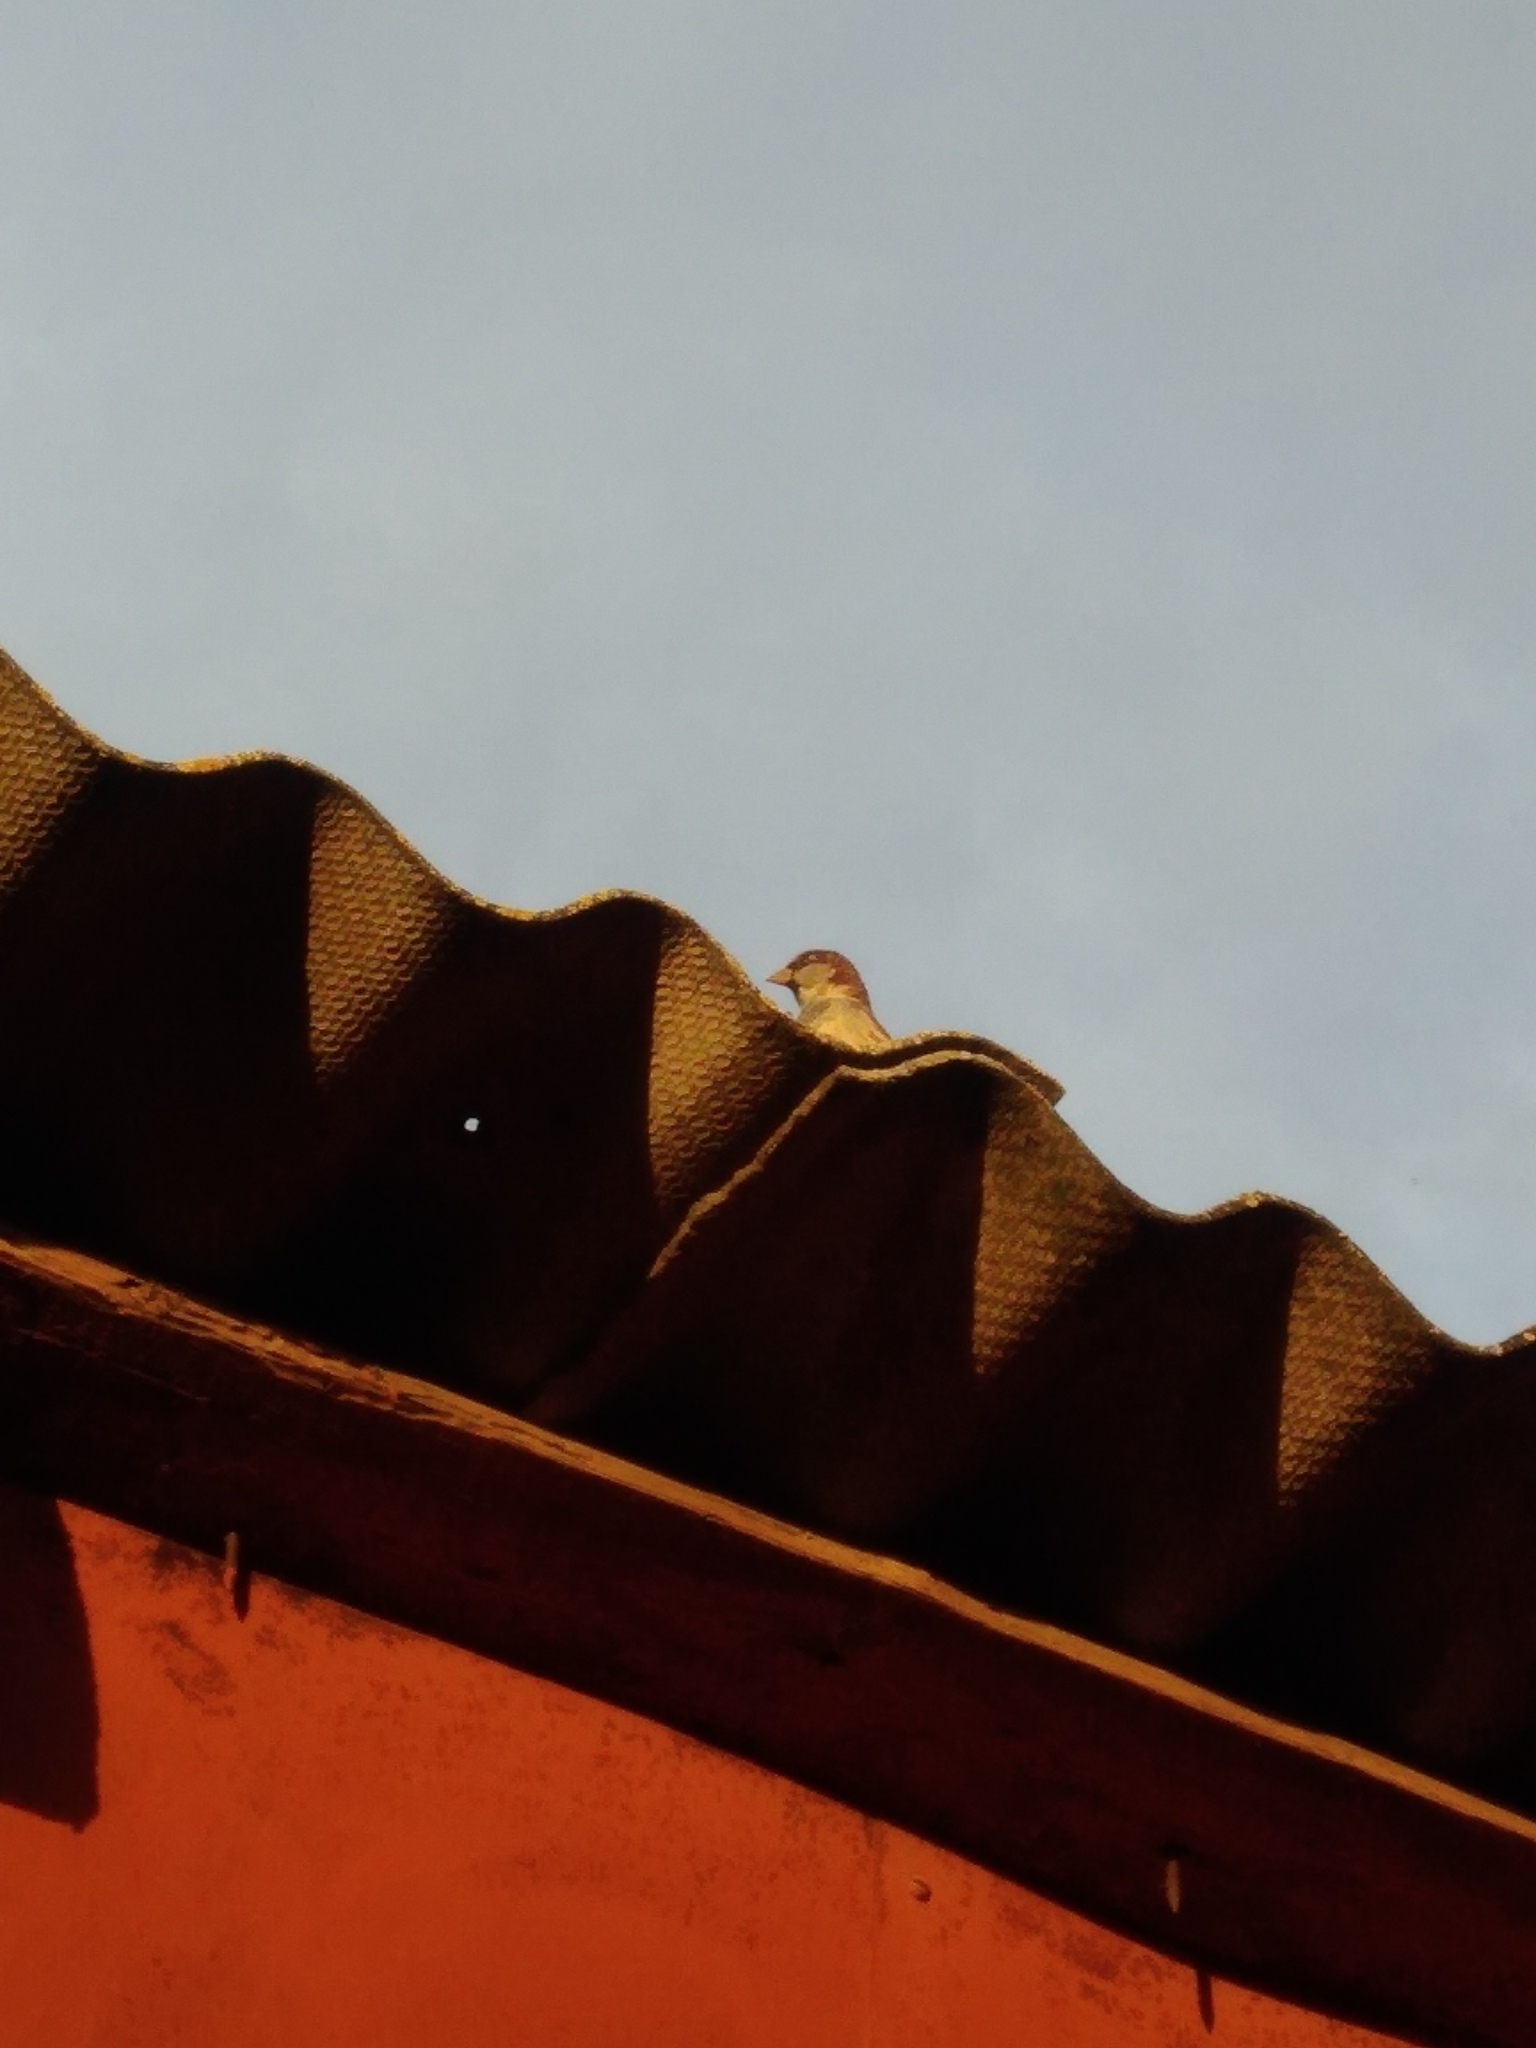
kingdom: Animalia
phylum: Chordata
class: Aves
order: Passeriformes
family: Passeridae
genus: Passer
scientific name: Passer domesticus
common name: House sparrow
